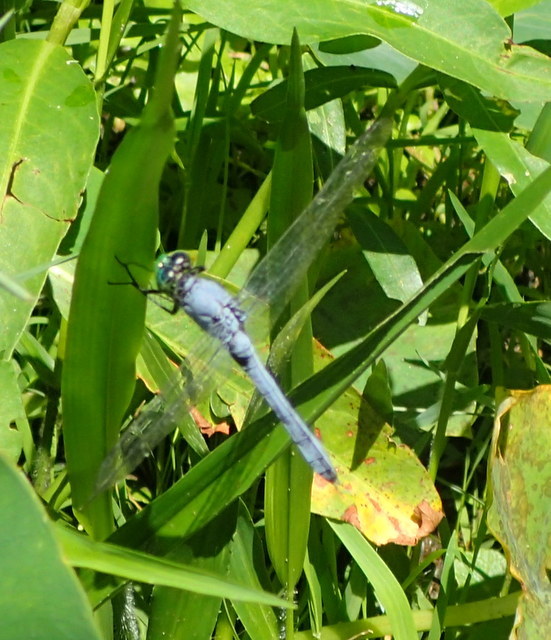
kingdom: Animalia
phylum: Arthropoda
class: Insecta
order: Odonata
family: Libellulidae
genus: Erythemis
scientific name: Erythemis simplicicollis
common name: Eastern pondhawk
